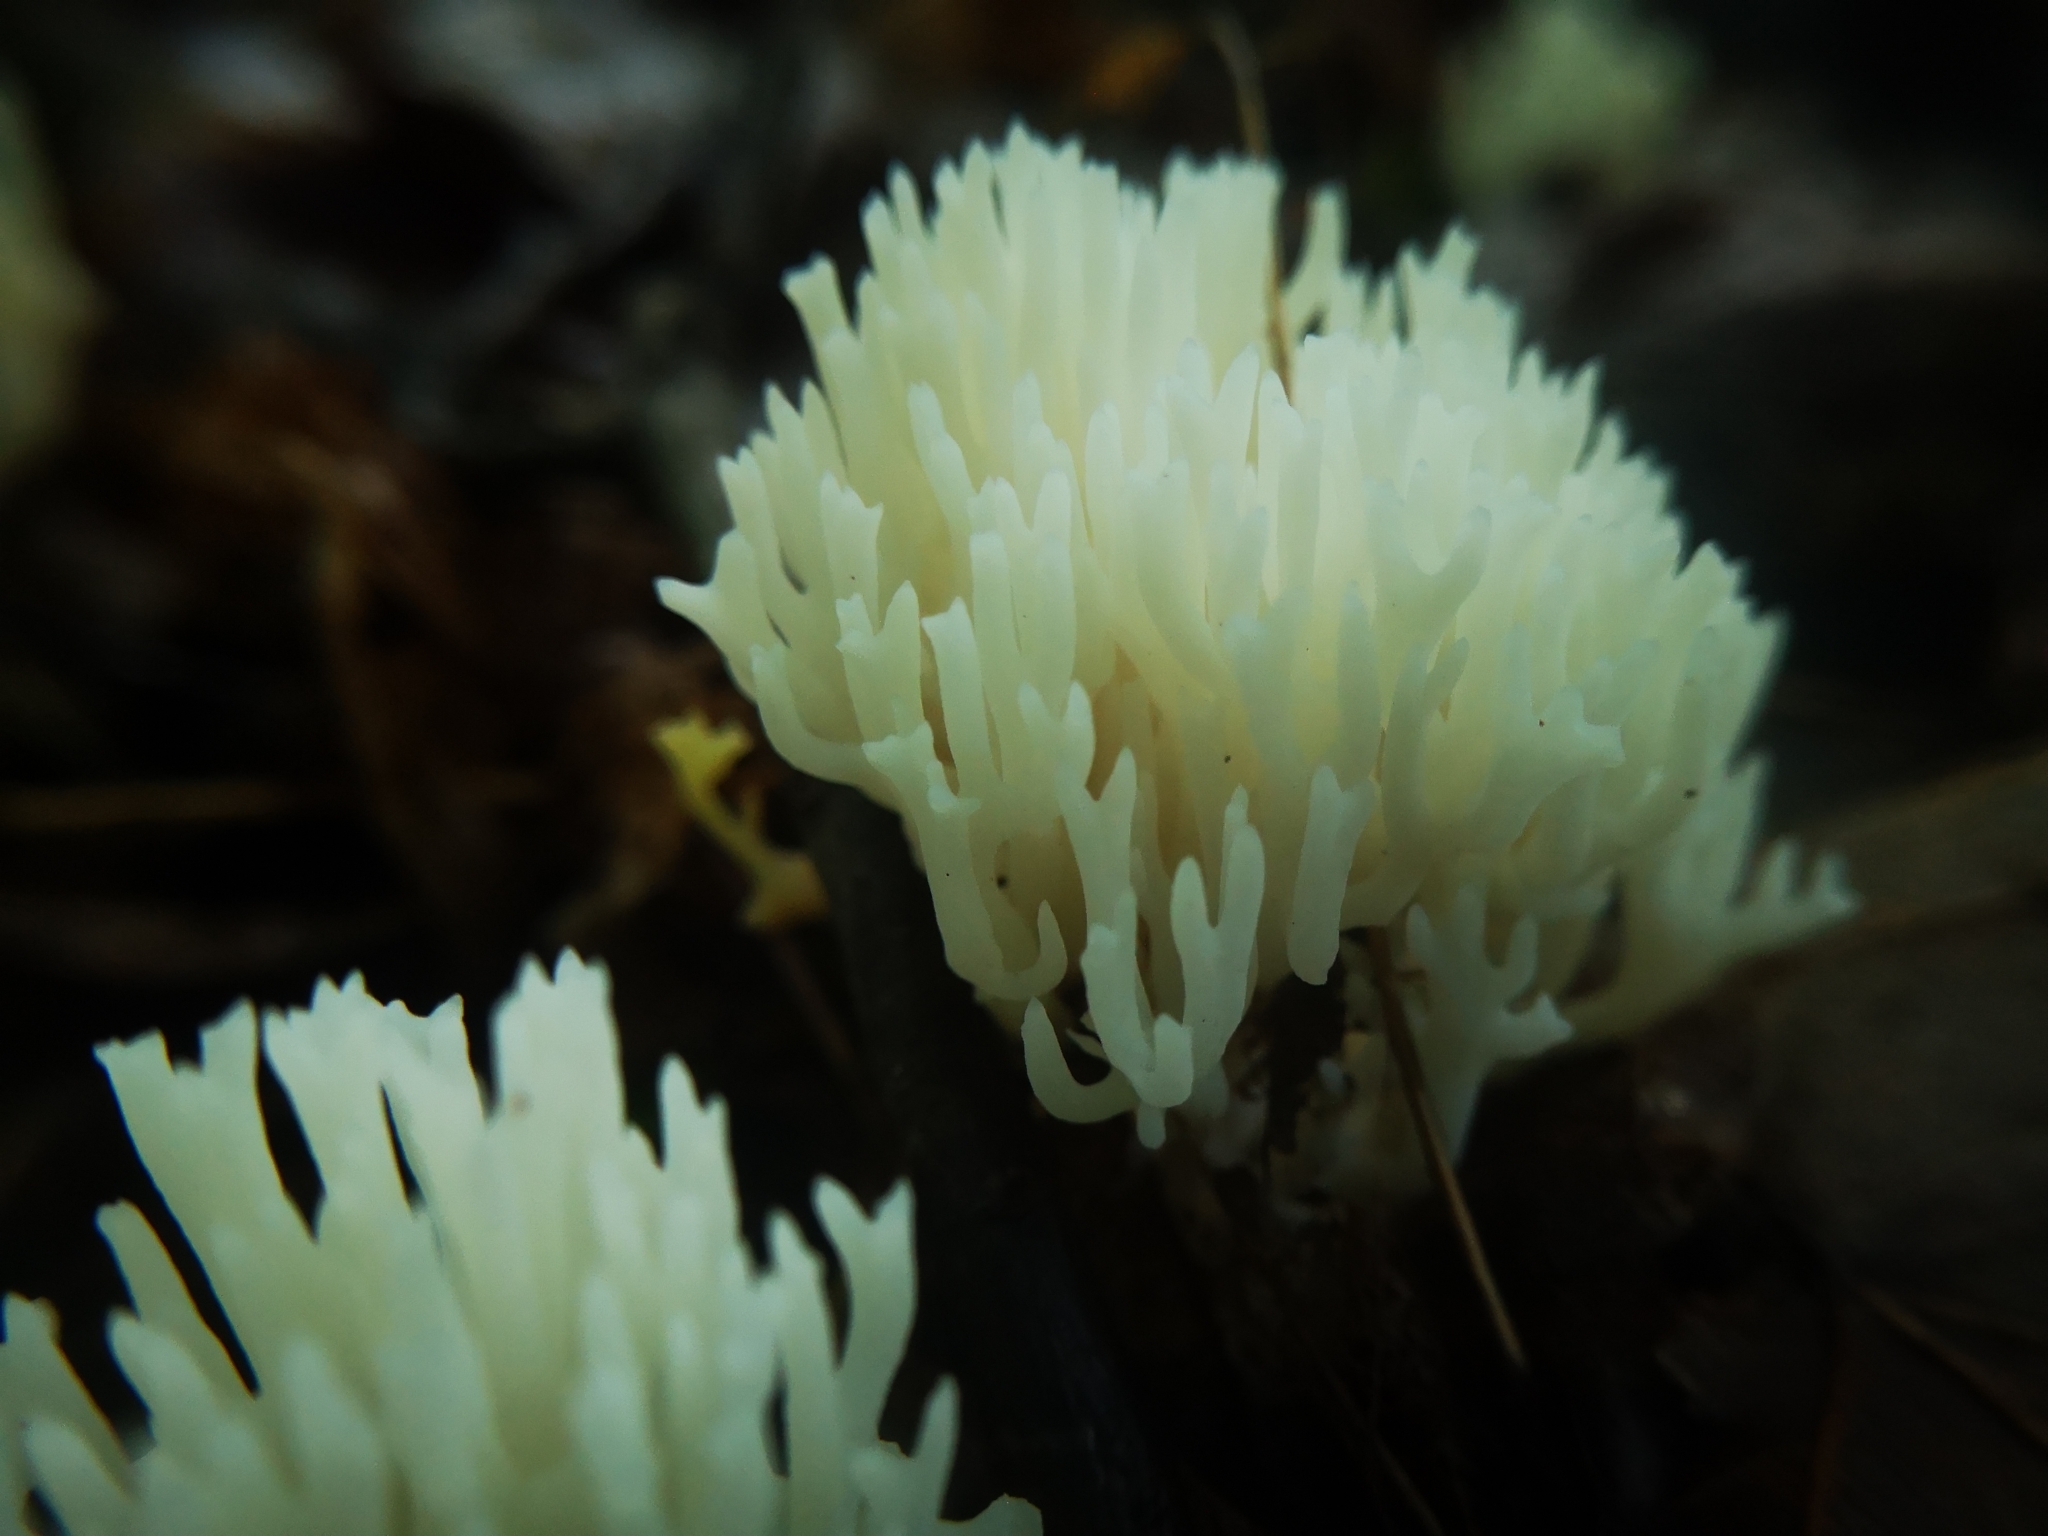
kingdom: Fungi
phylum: Basidiomycota
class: Agaricomycetes
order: Agaricales
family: Clavariaceae
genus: Ramariopsis
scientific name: Ramariopsis kunzei
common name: Ivory coral
